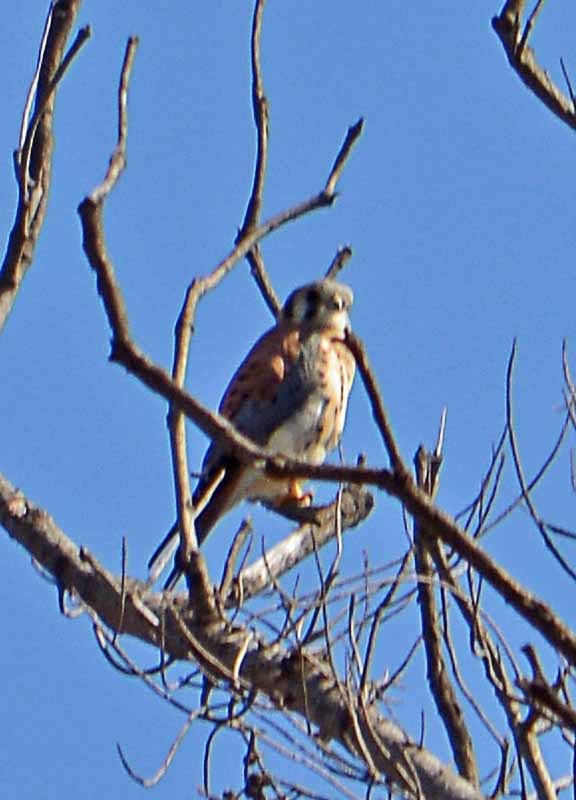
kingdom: Animalia
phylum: Chordata
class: Aves
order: Falconiformes
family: Falconidae
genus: Falco
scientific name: Falco sparverius
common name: American kestrel
